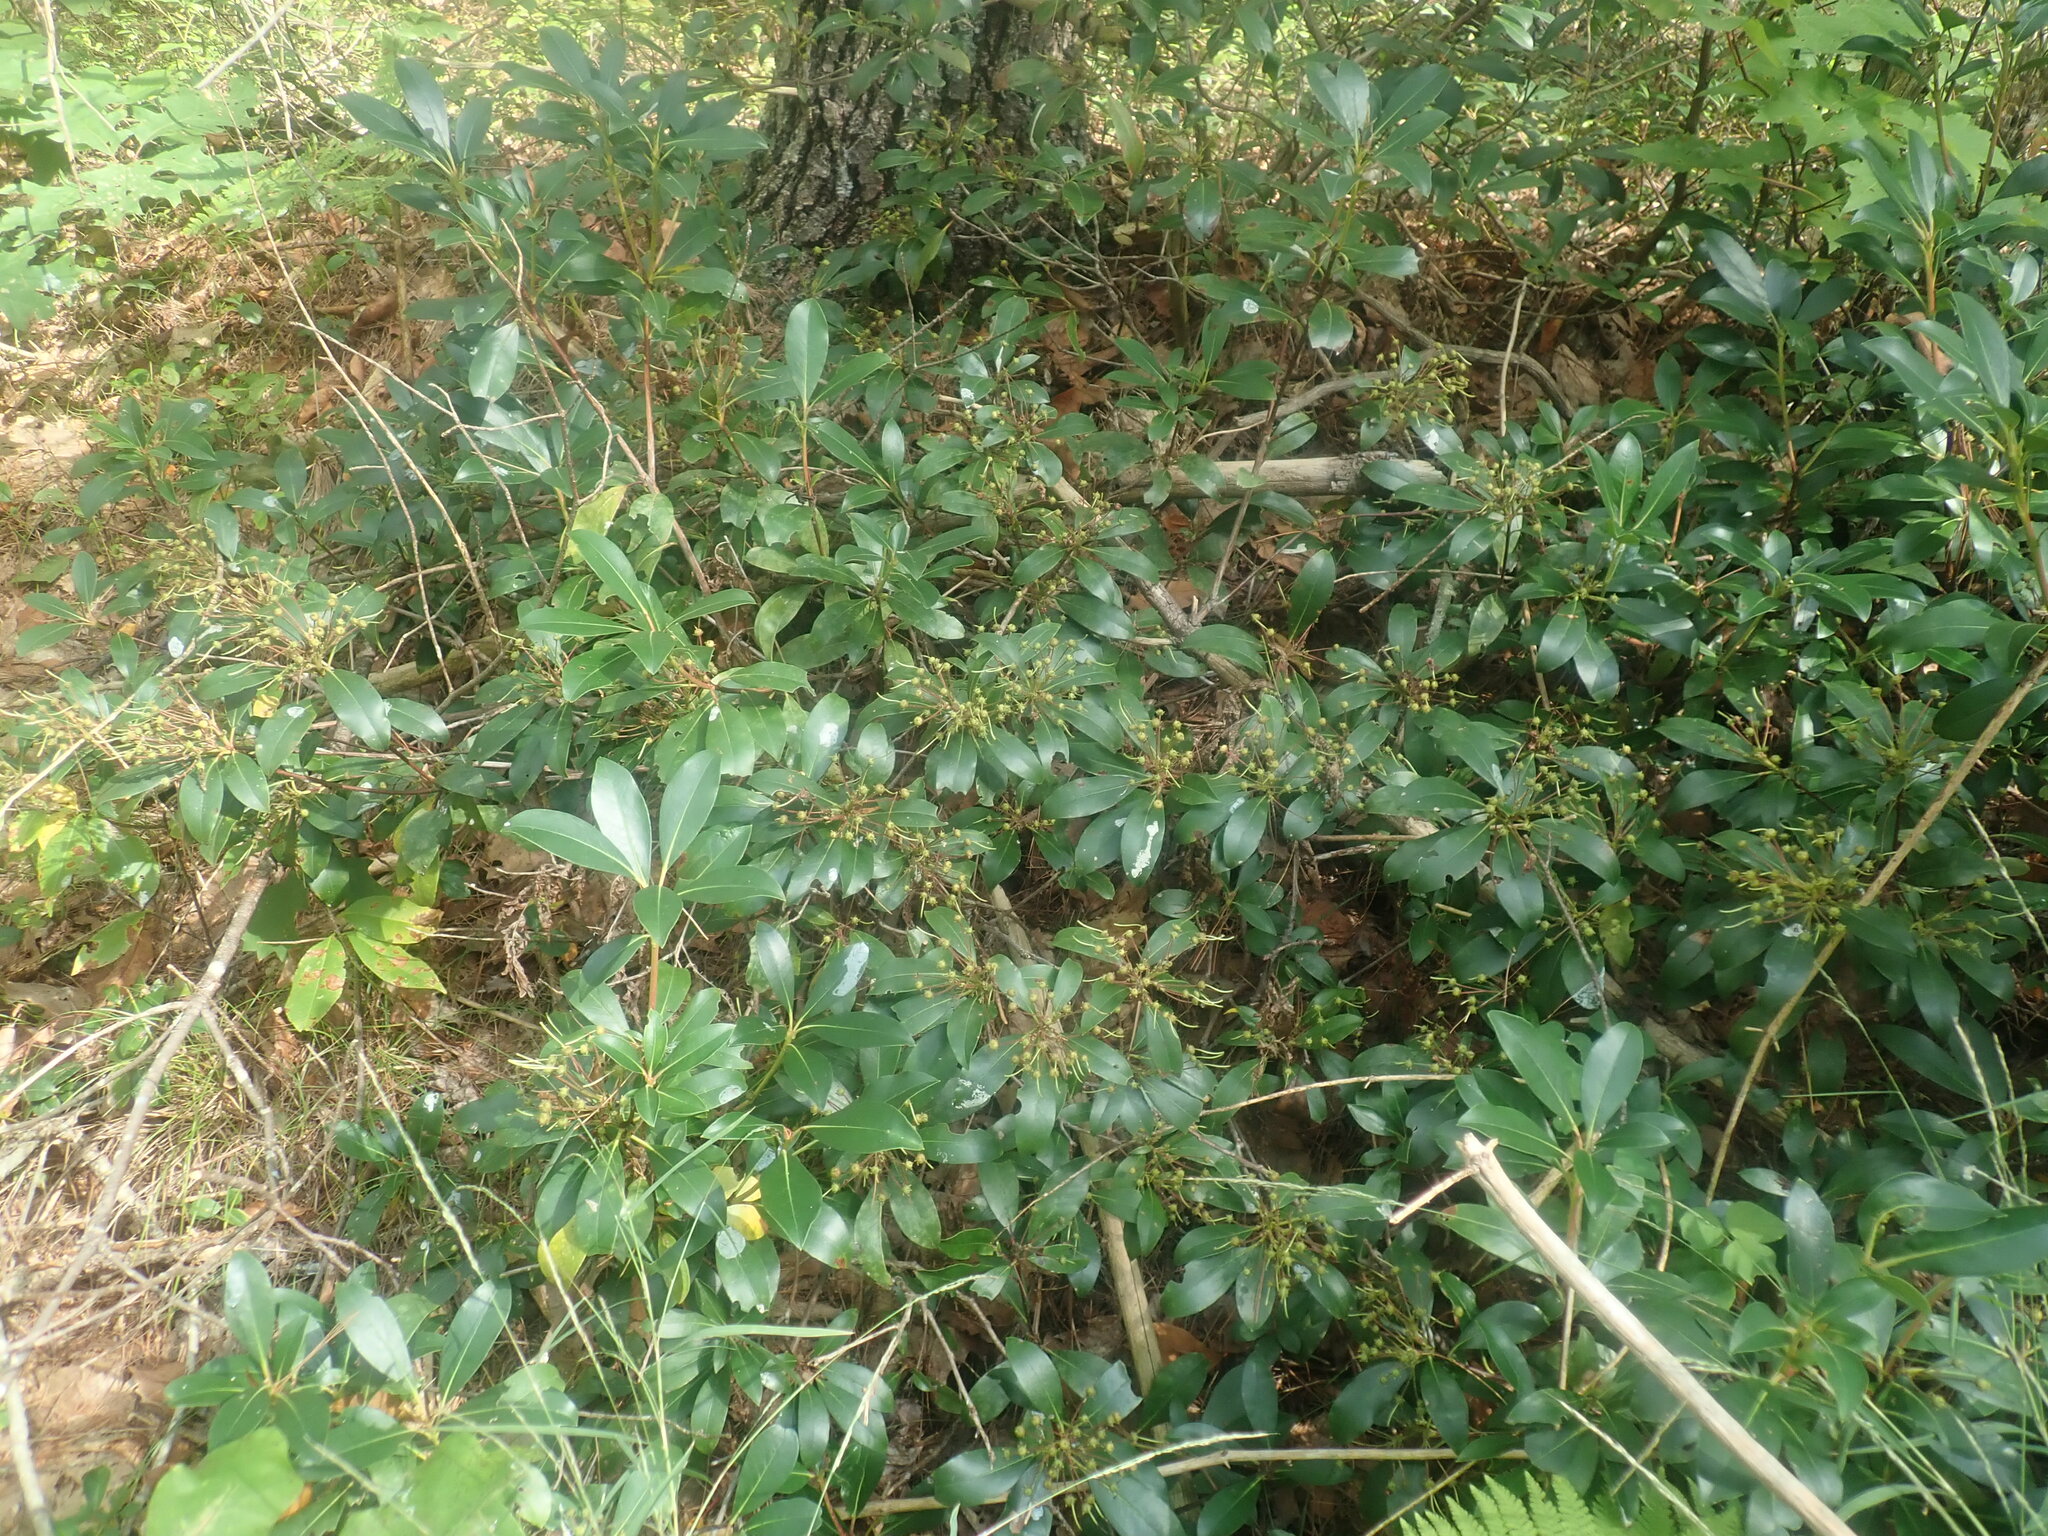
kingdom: Plantae
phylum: Tracheophyta
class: Magnoliopsida
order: Ericales
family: Ericaceae
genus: Kalmia
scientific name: Kalmia latifolia
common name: Mountain-laurel
